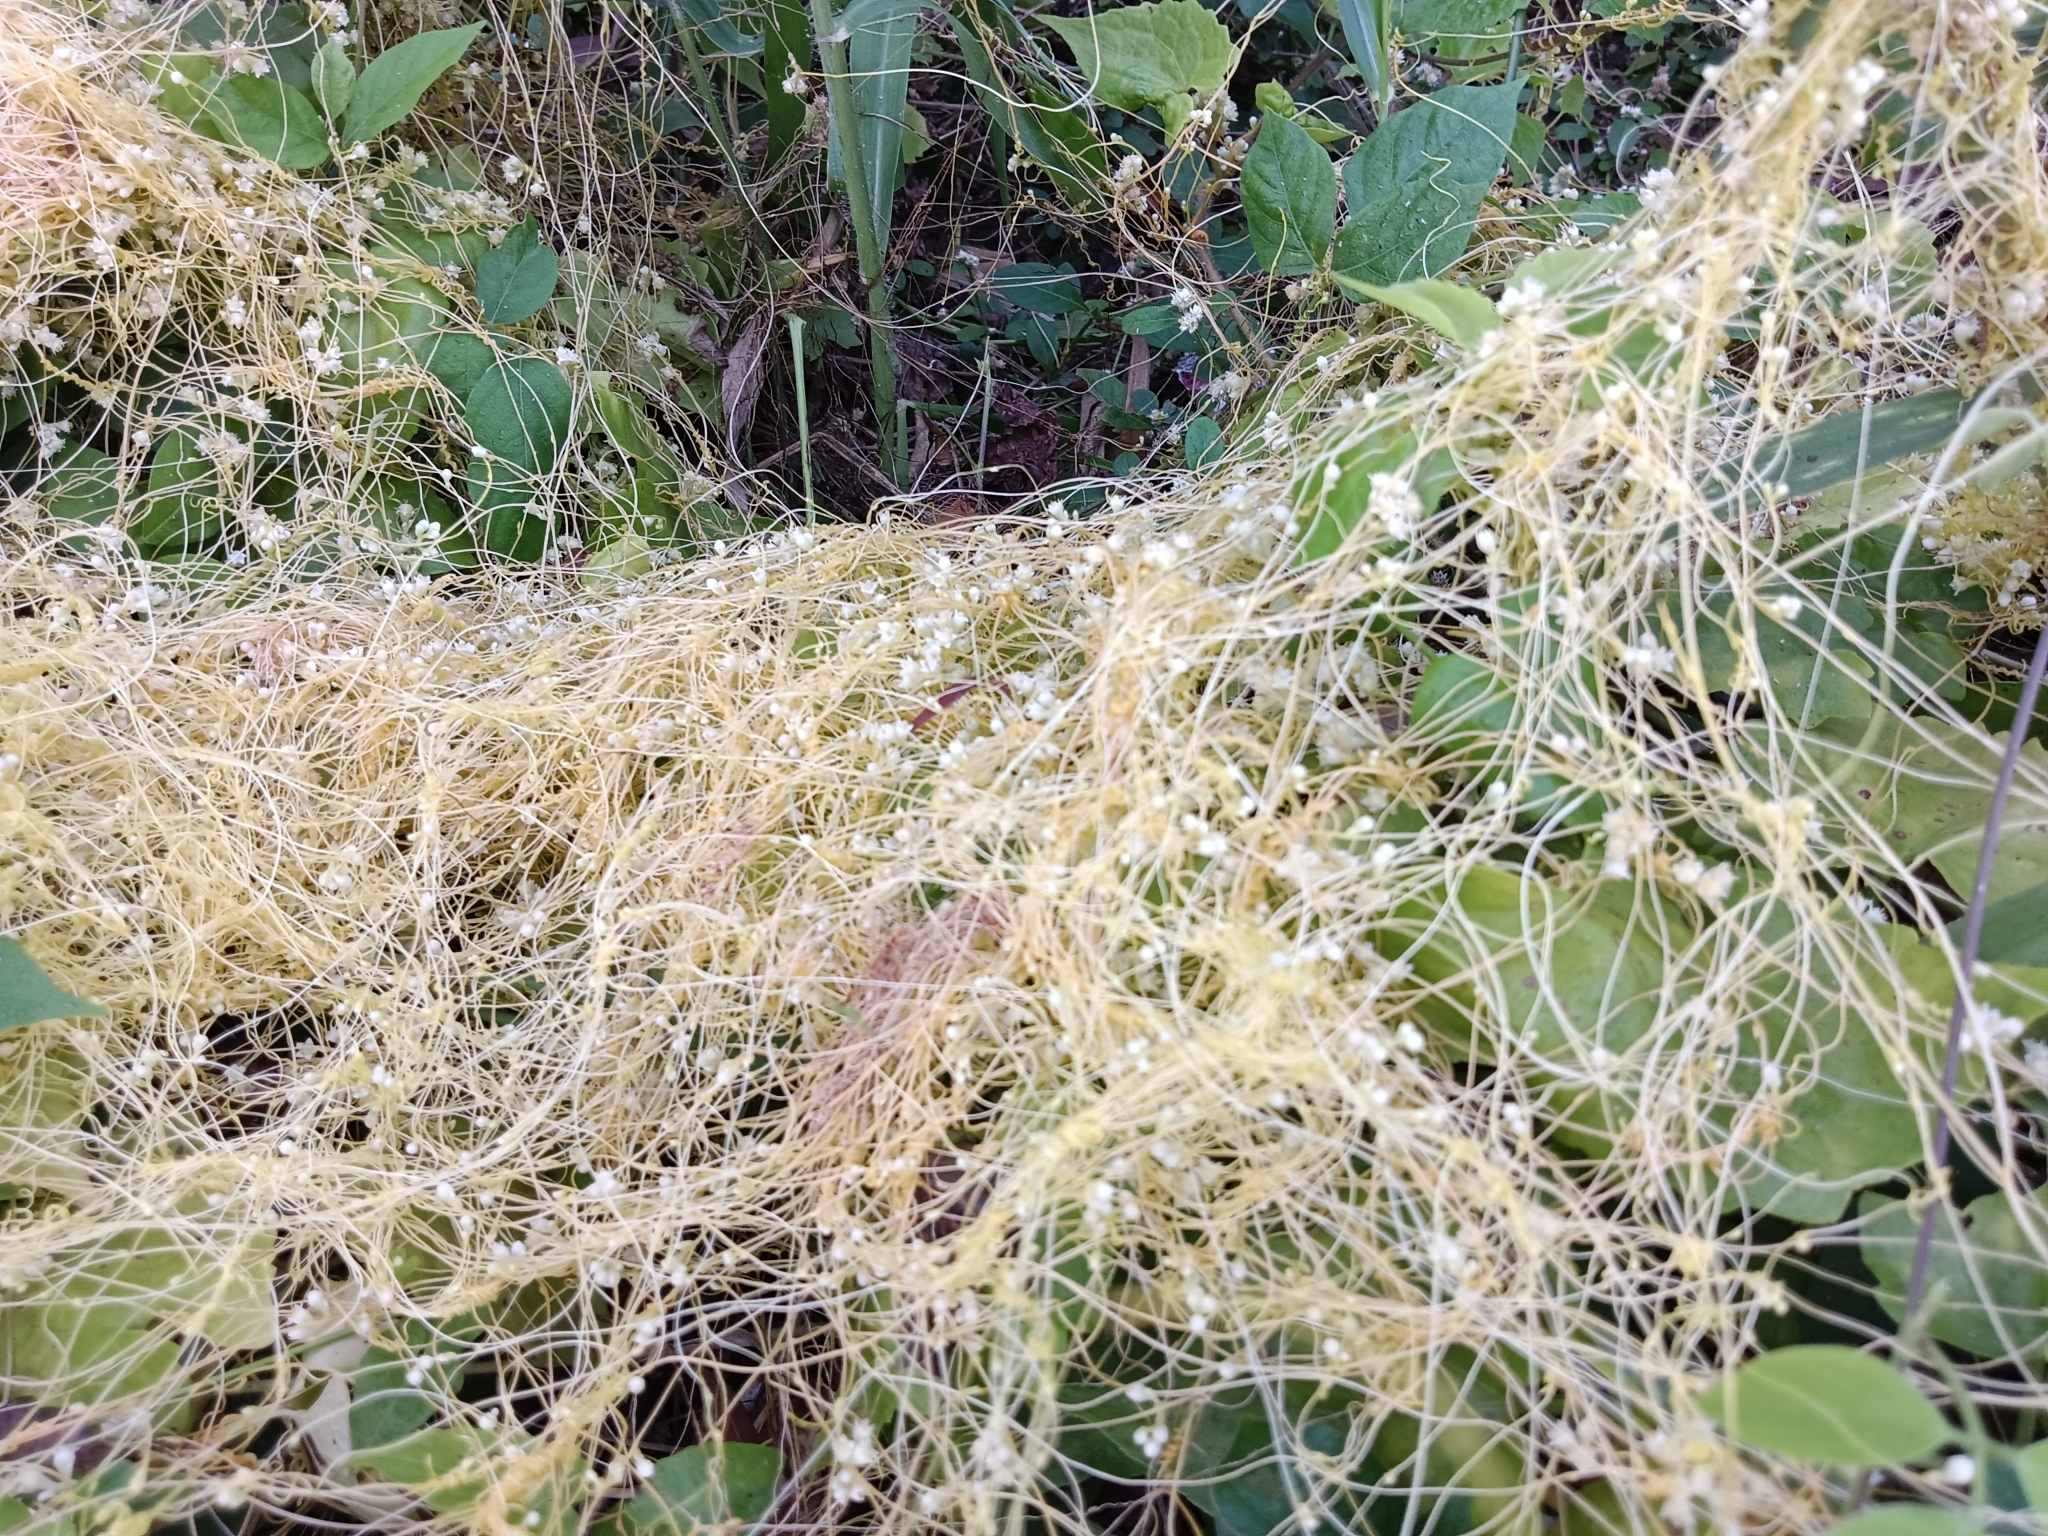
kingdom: Plantae
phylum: Tracheophyta
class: Magnoliopsida
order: Solanales
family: Convolvulaceae
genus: Cuscuta
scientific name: Cuscuta campestris
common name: Yellow dodder
